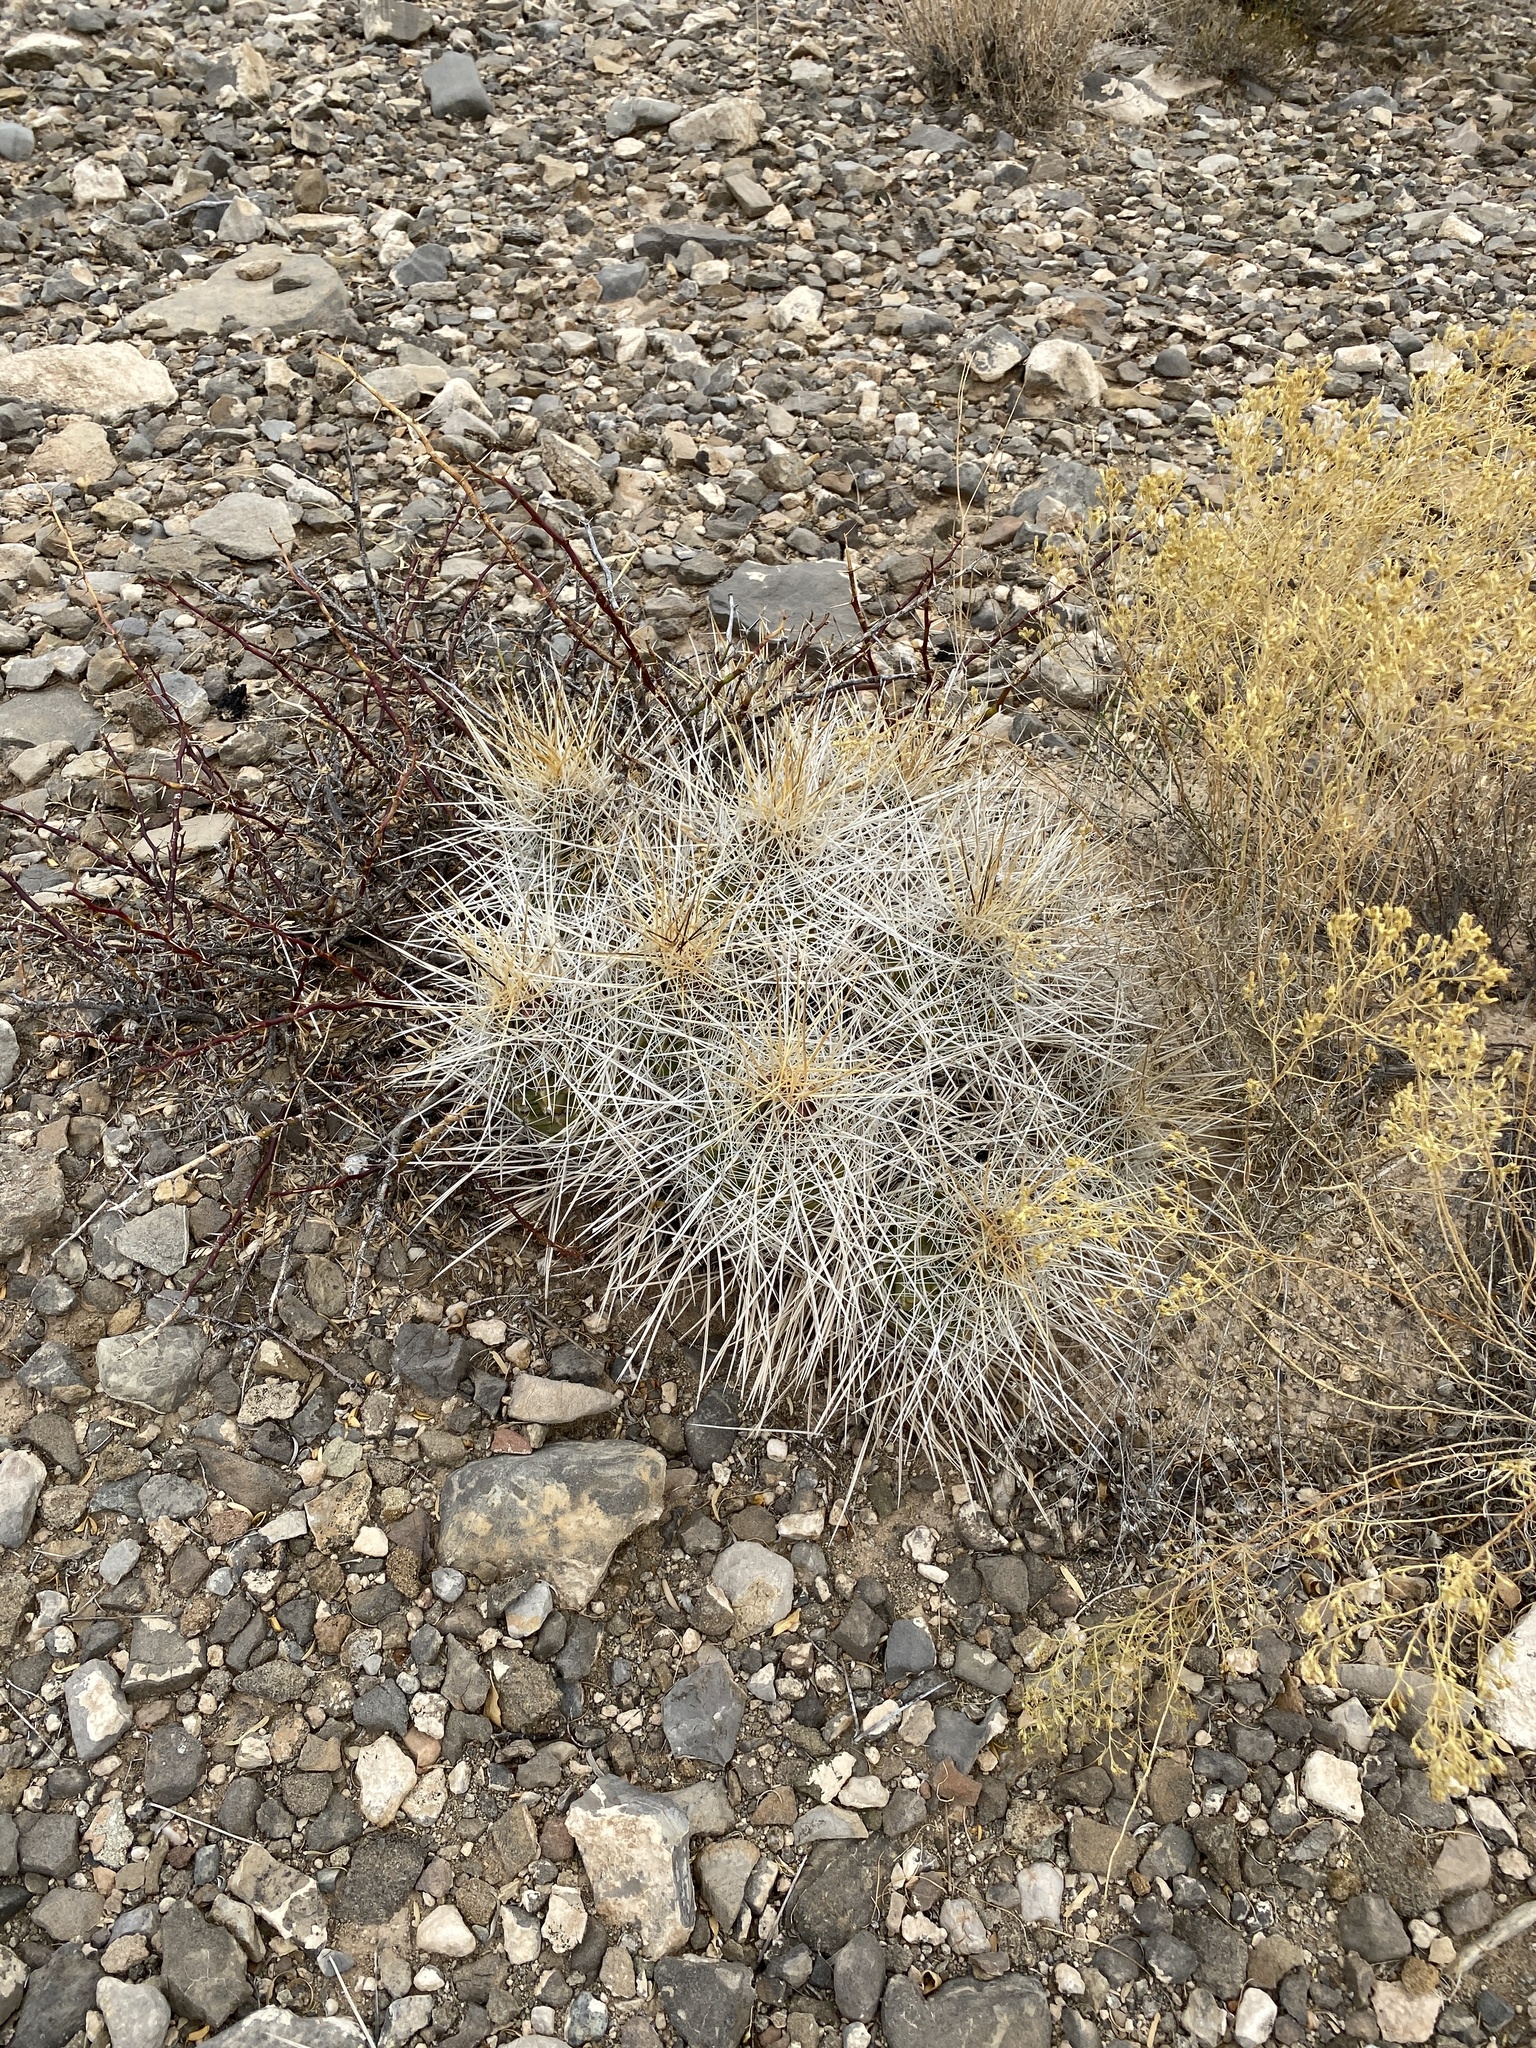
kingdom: Plantae
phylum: Tracheophyta
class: Magnoliopsida
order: Caryophyllales
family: Cactaceae
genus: Echinocereus
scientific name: Echinocereus stramineus
